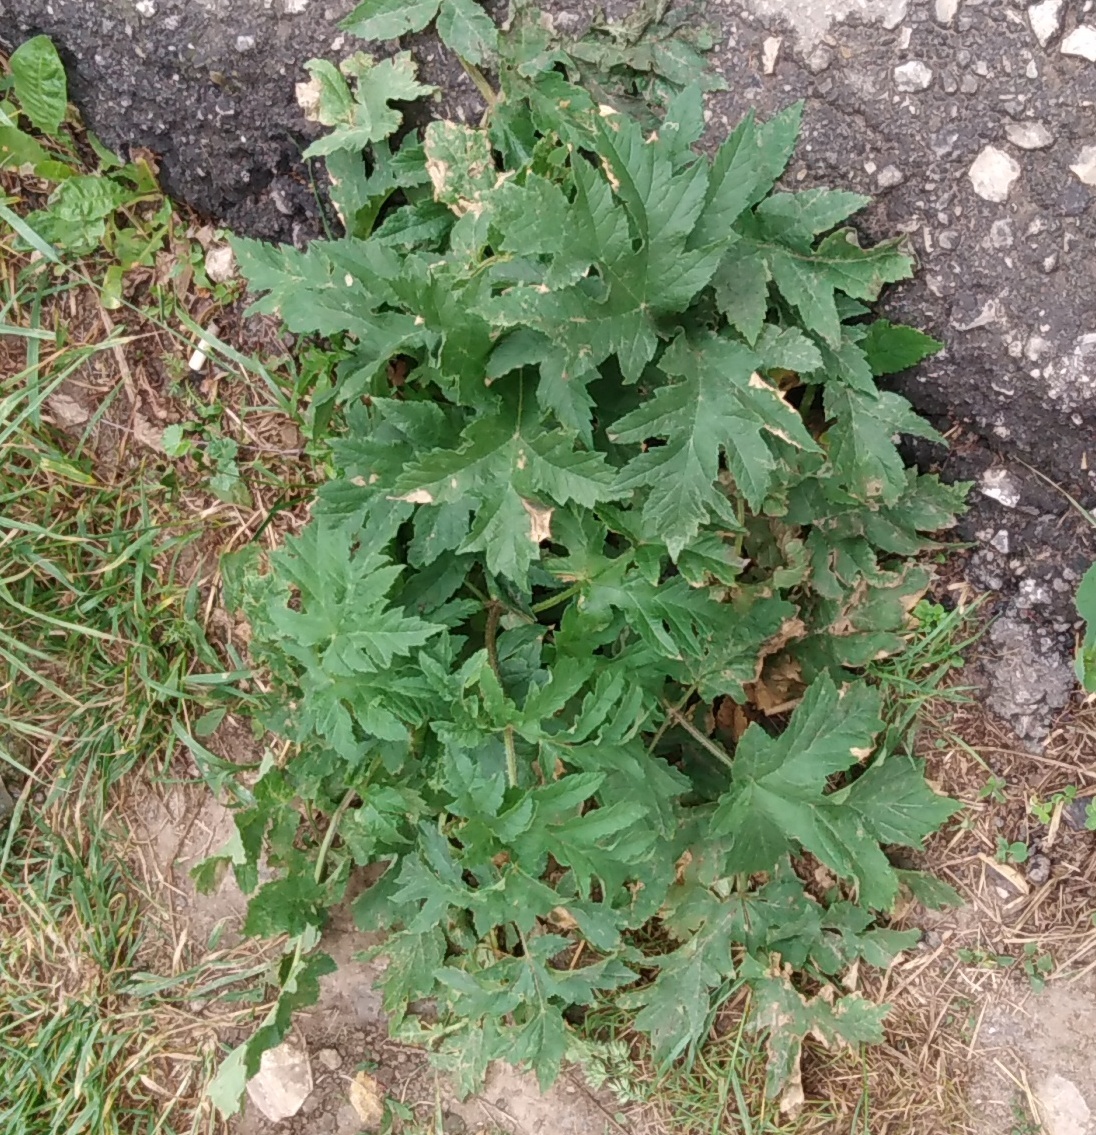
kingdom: Plantae
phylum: Tracheophyta
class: Magnoliopsida
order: Apiales
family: Apiaceae
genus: Heracleum
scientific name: Heracleum sphondylium
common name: Hogweed
